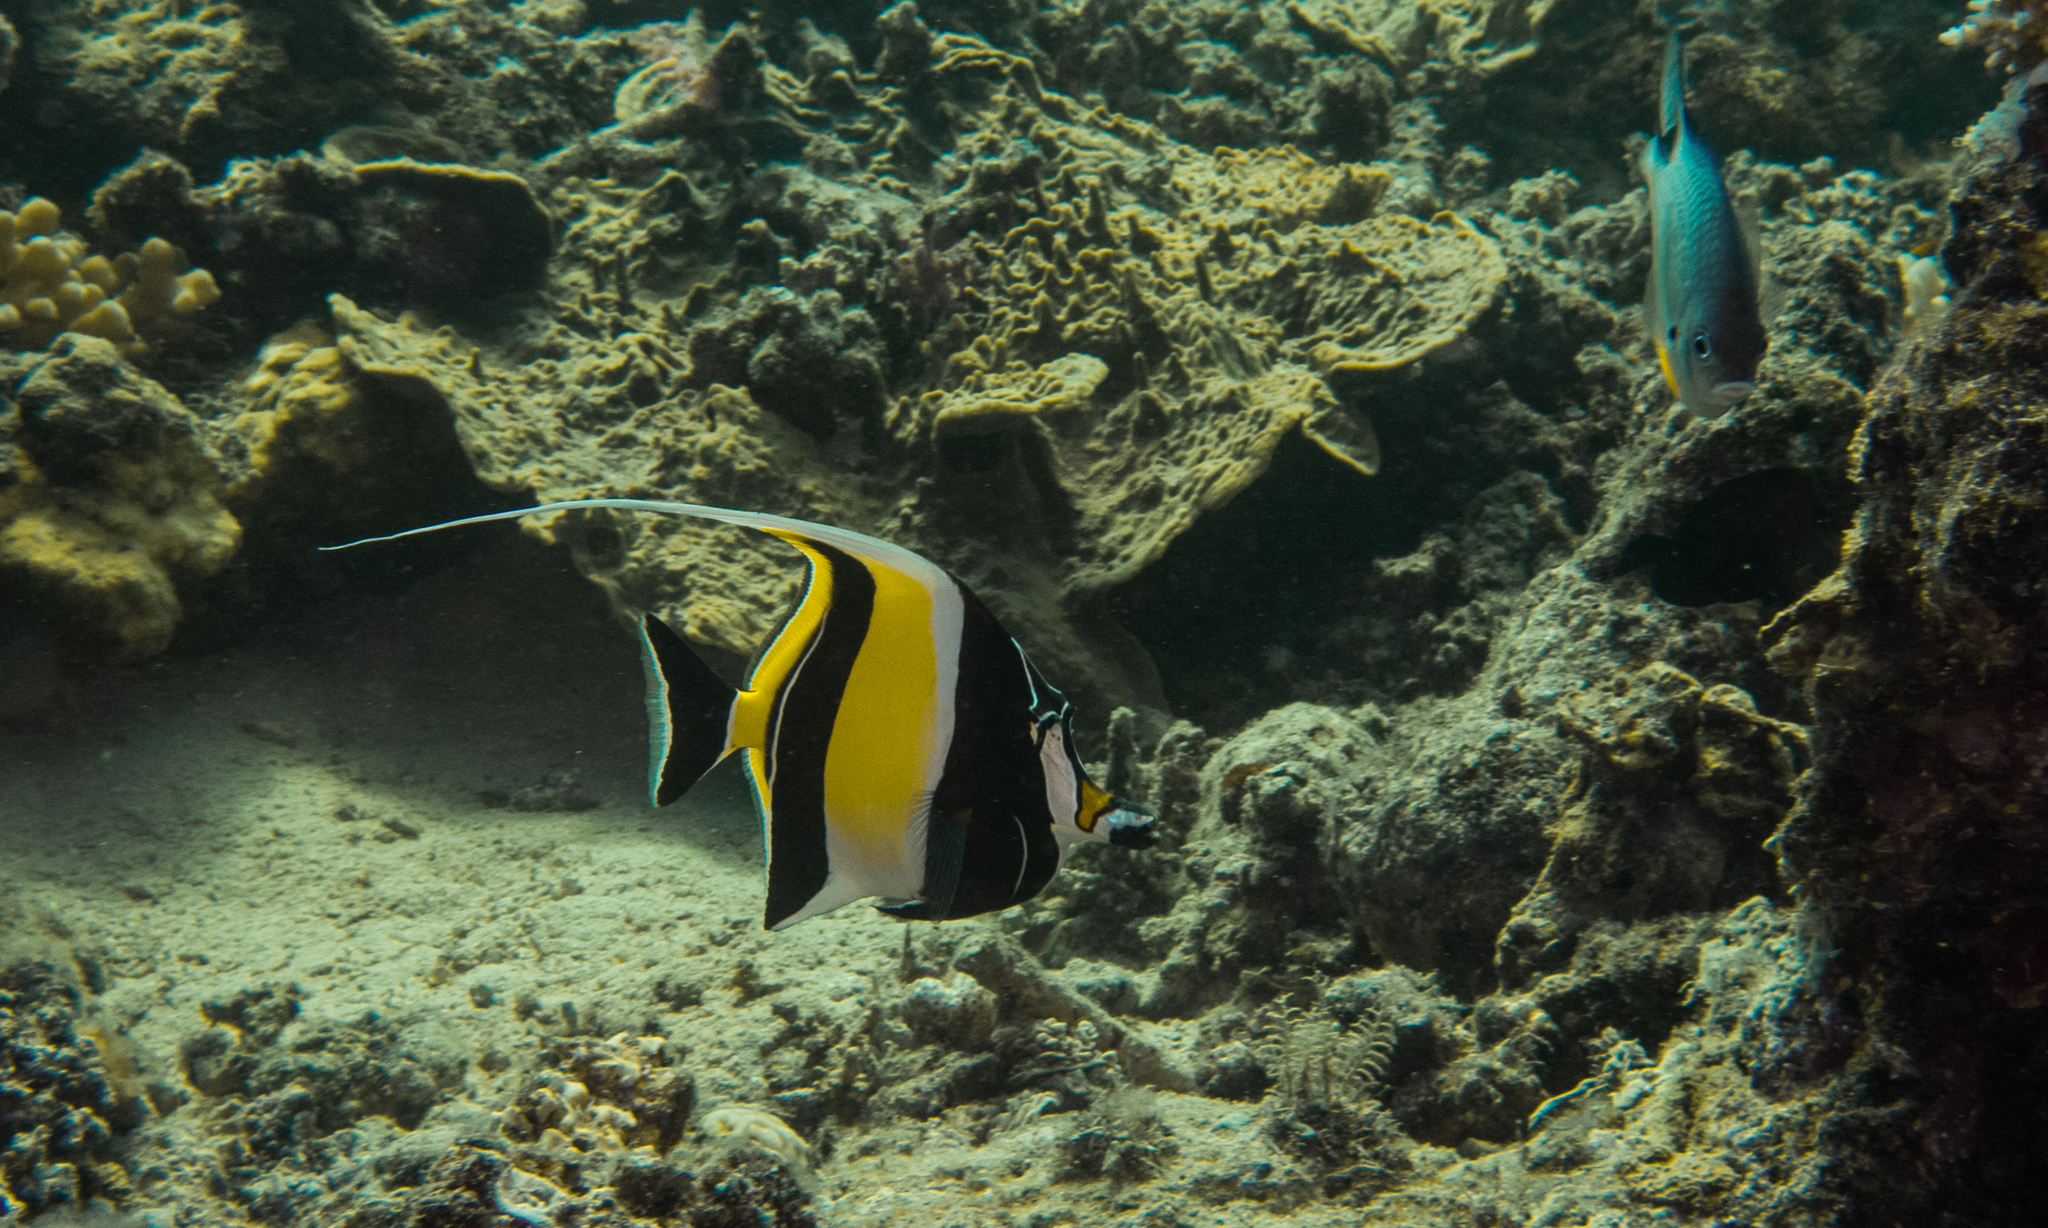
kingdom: Animalia
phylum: Chordata
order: Perciformes
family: Zanclidae
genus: Zanclus
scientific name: Zanclus cornutus
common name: Moorish idol
